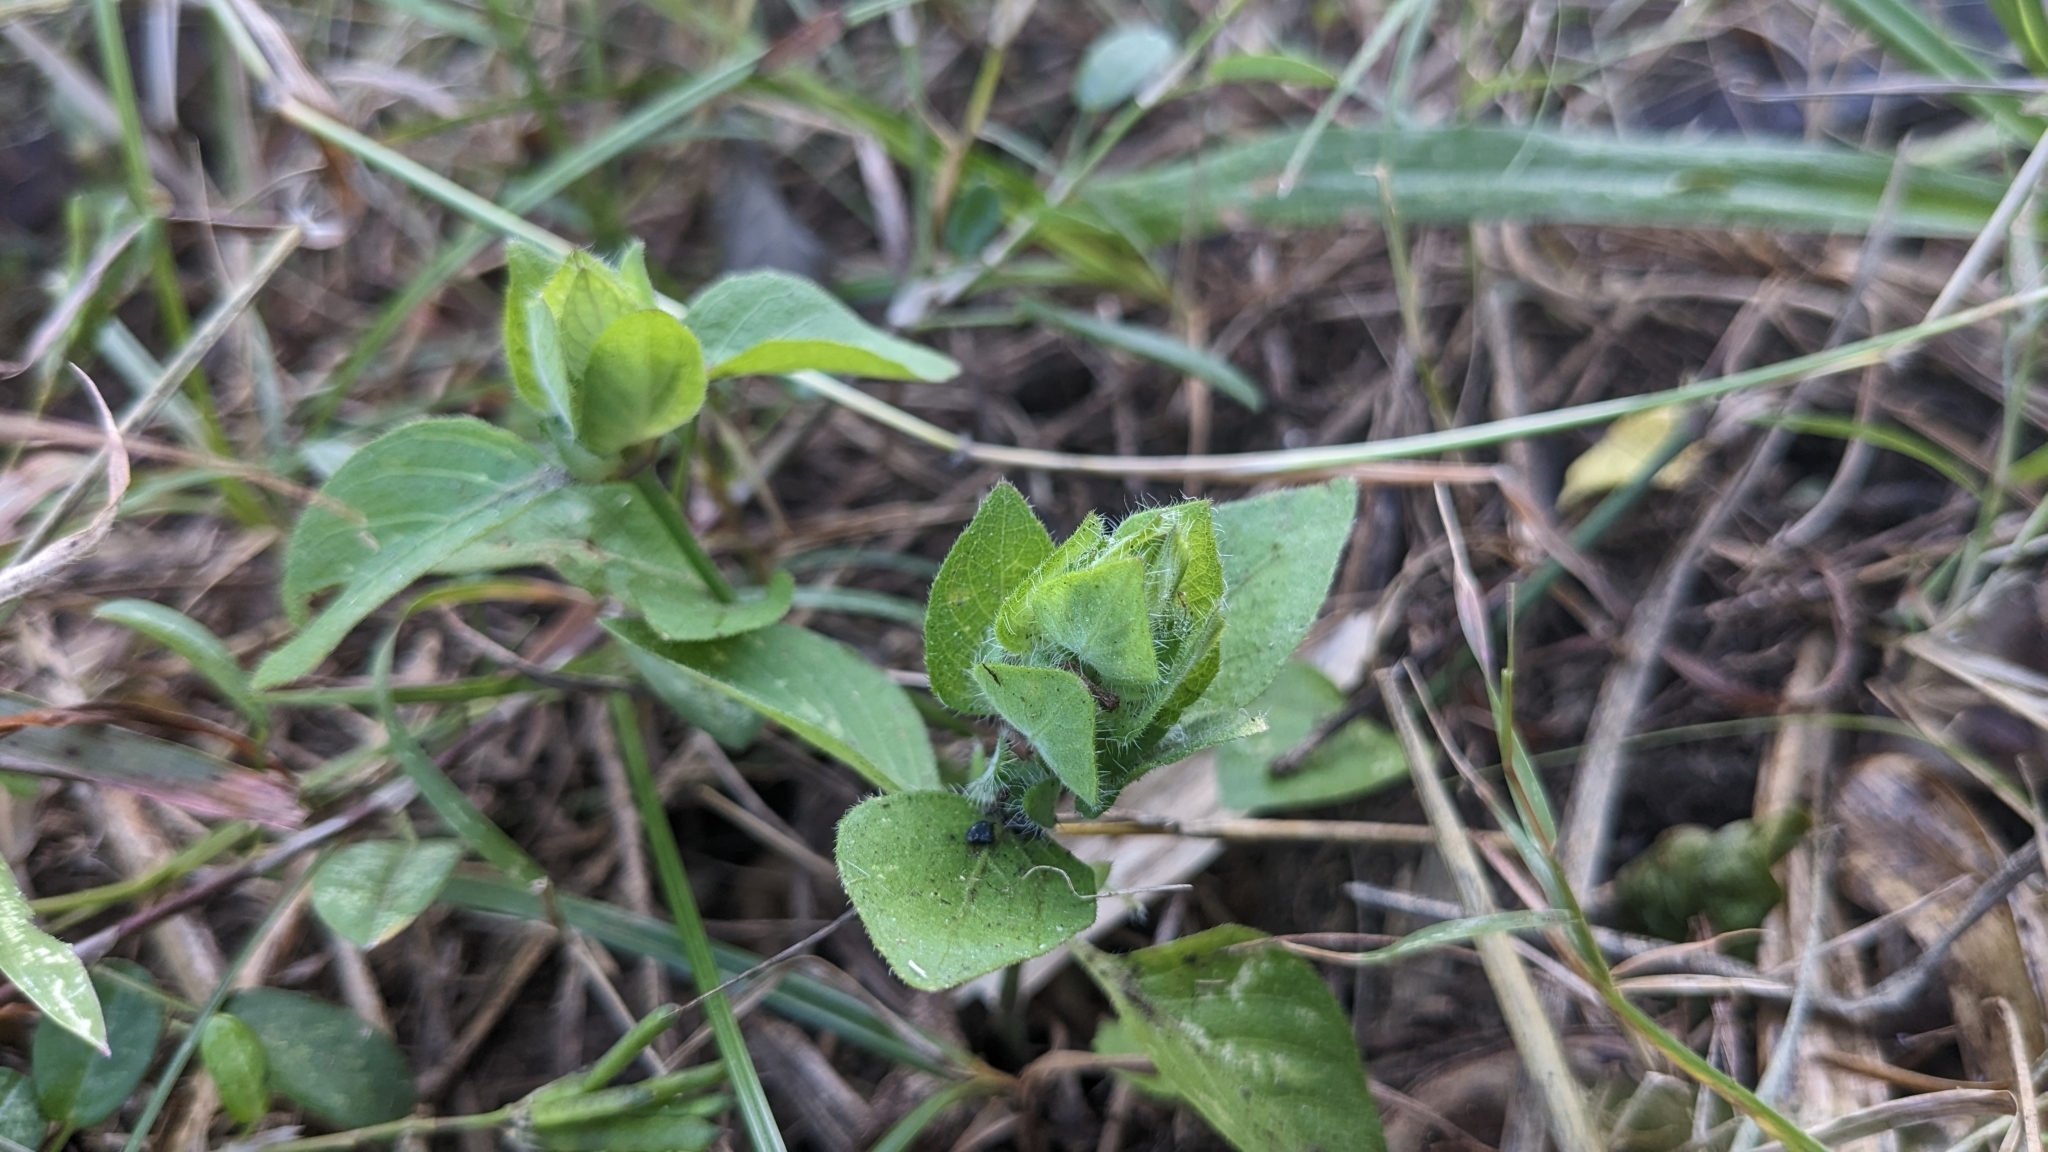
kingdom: Plantae
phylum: Tracheophyta
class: Magnoliopsida
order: Lamiales
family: Acanthaceae
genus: Ruellia
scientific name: Ruellia blechum
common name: Browne's blechum
